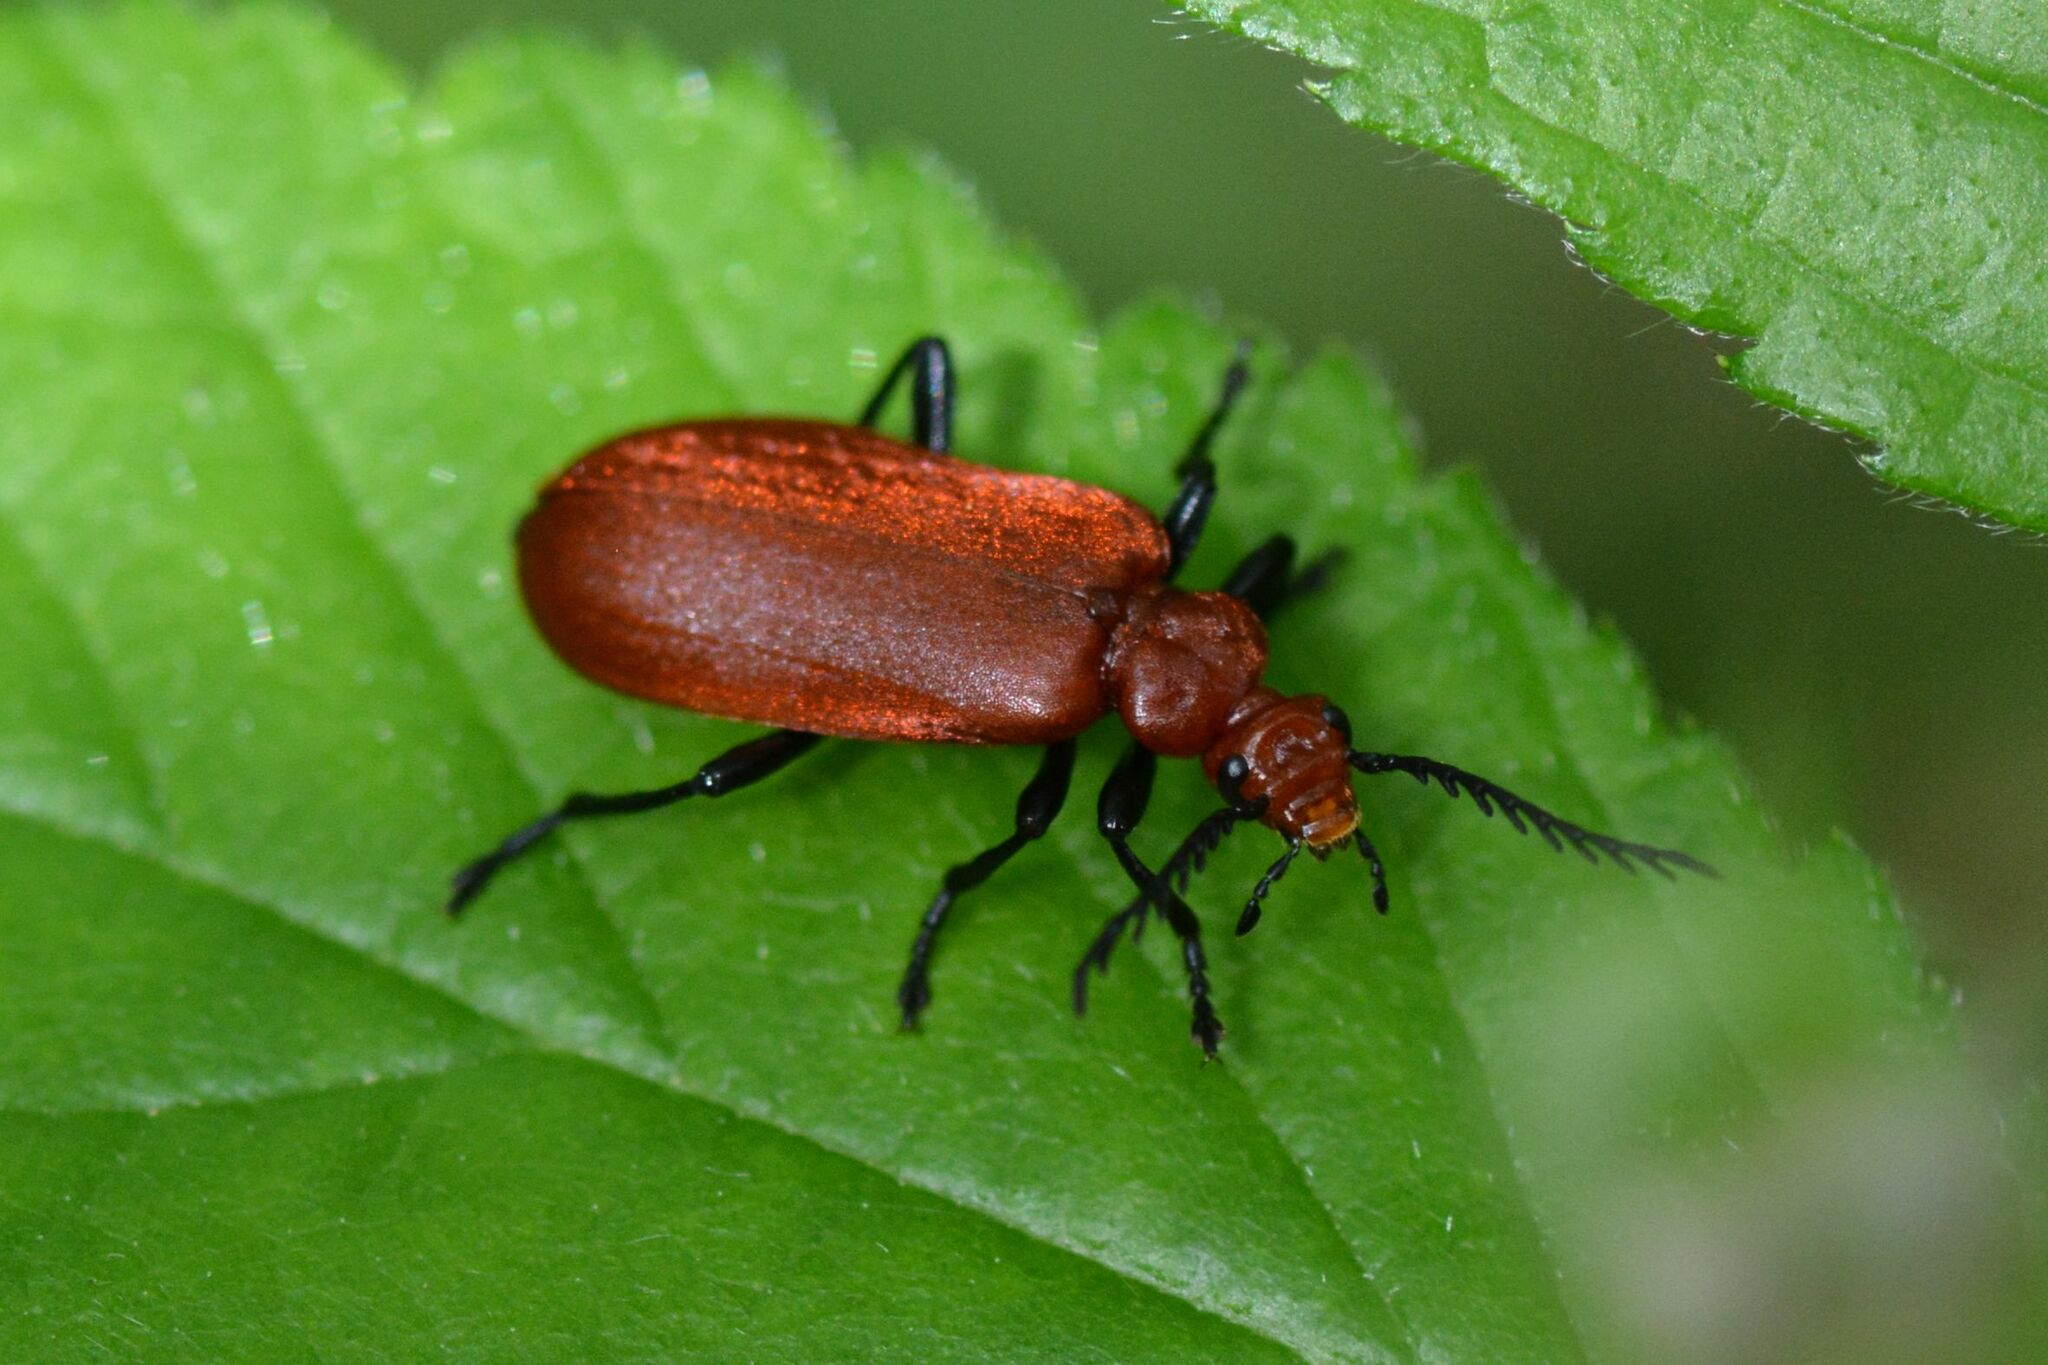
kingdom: Animalia
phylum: Arthropoda
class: Insecta
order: Coleoptera
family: Pyrochroidae
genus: Pyrochroa
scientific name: Pyrochroa serraticornis
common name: Red-headed cardinal beetle
